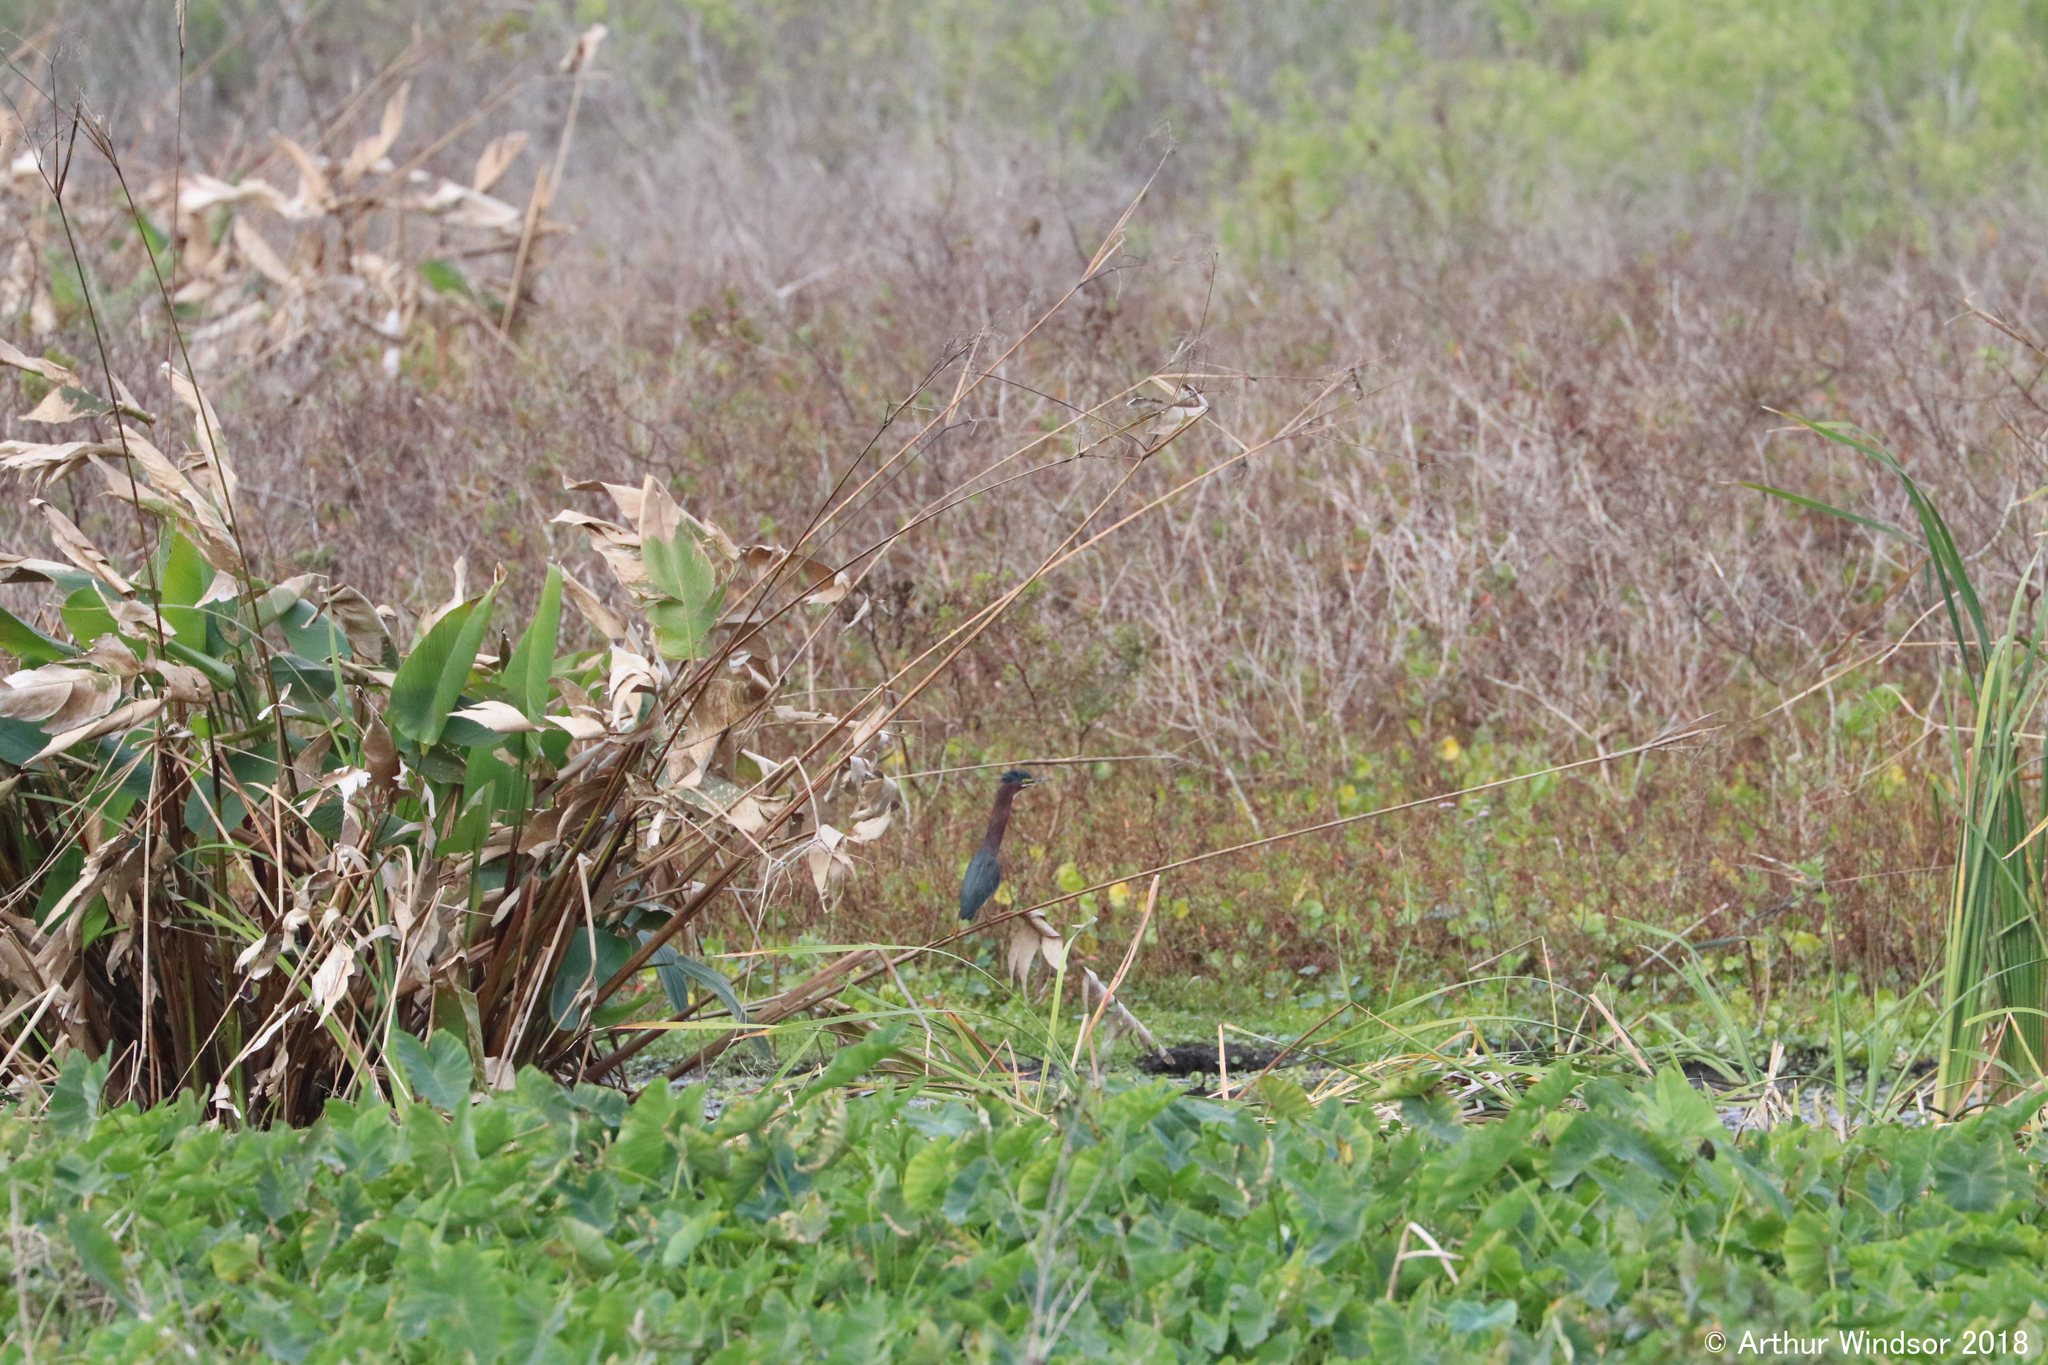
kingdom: Animalia
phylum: Chordata
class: Aves
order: Pelecaniformes
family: Ardeidae
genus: Butorides
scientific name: Butorides virescens
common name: Green heron
